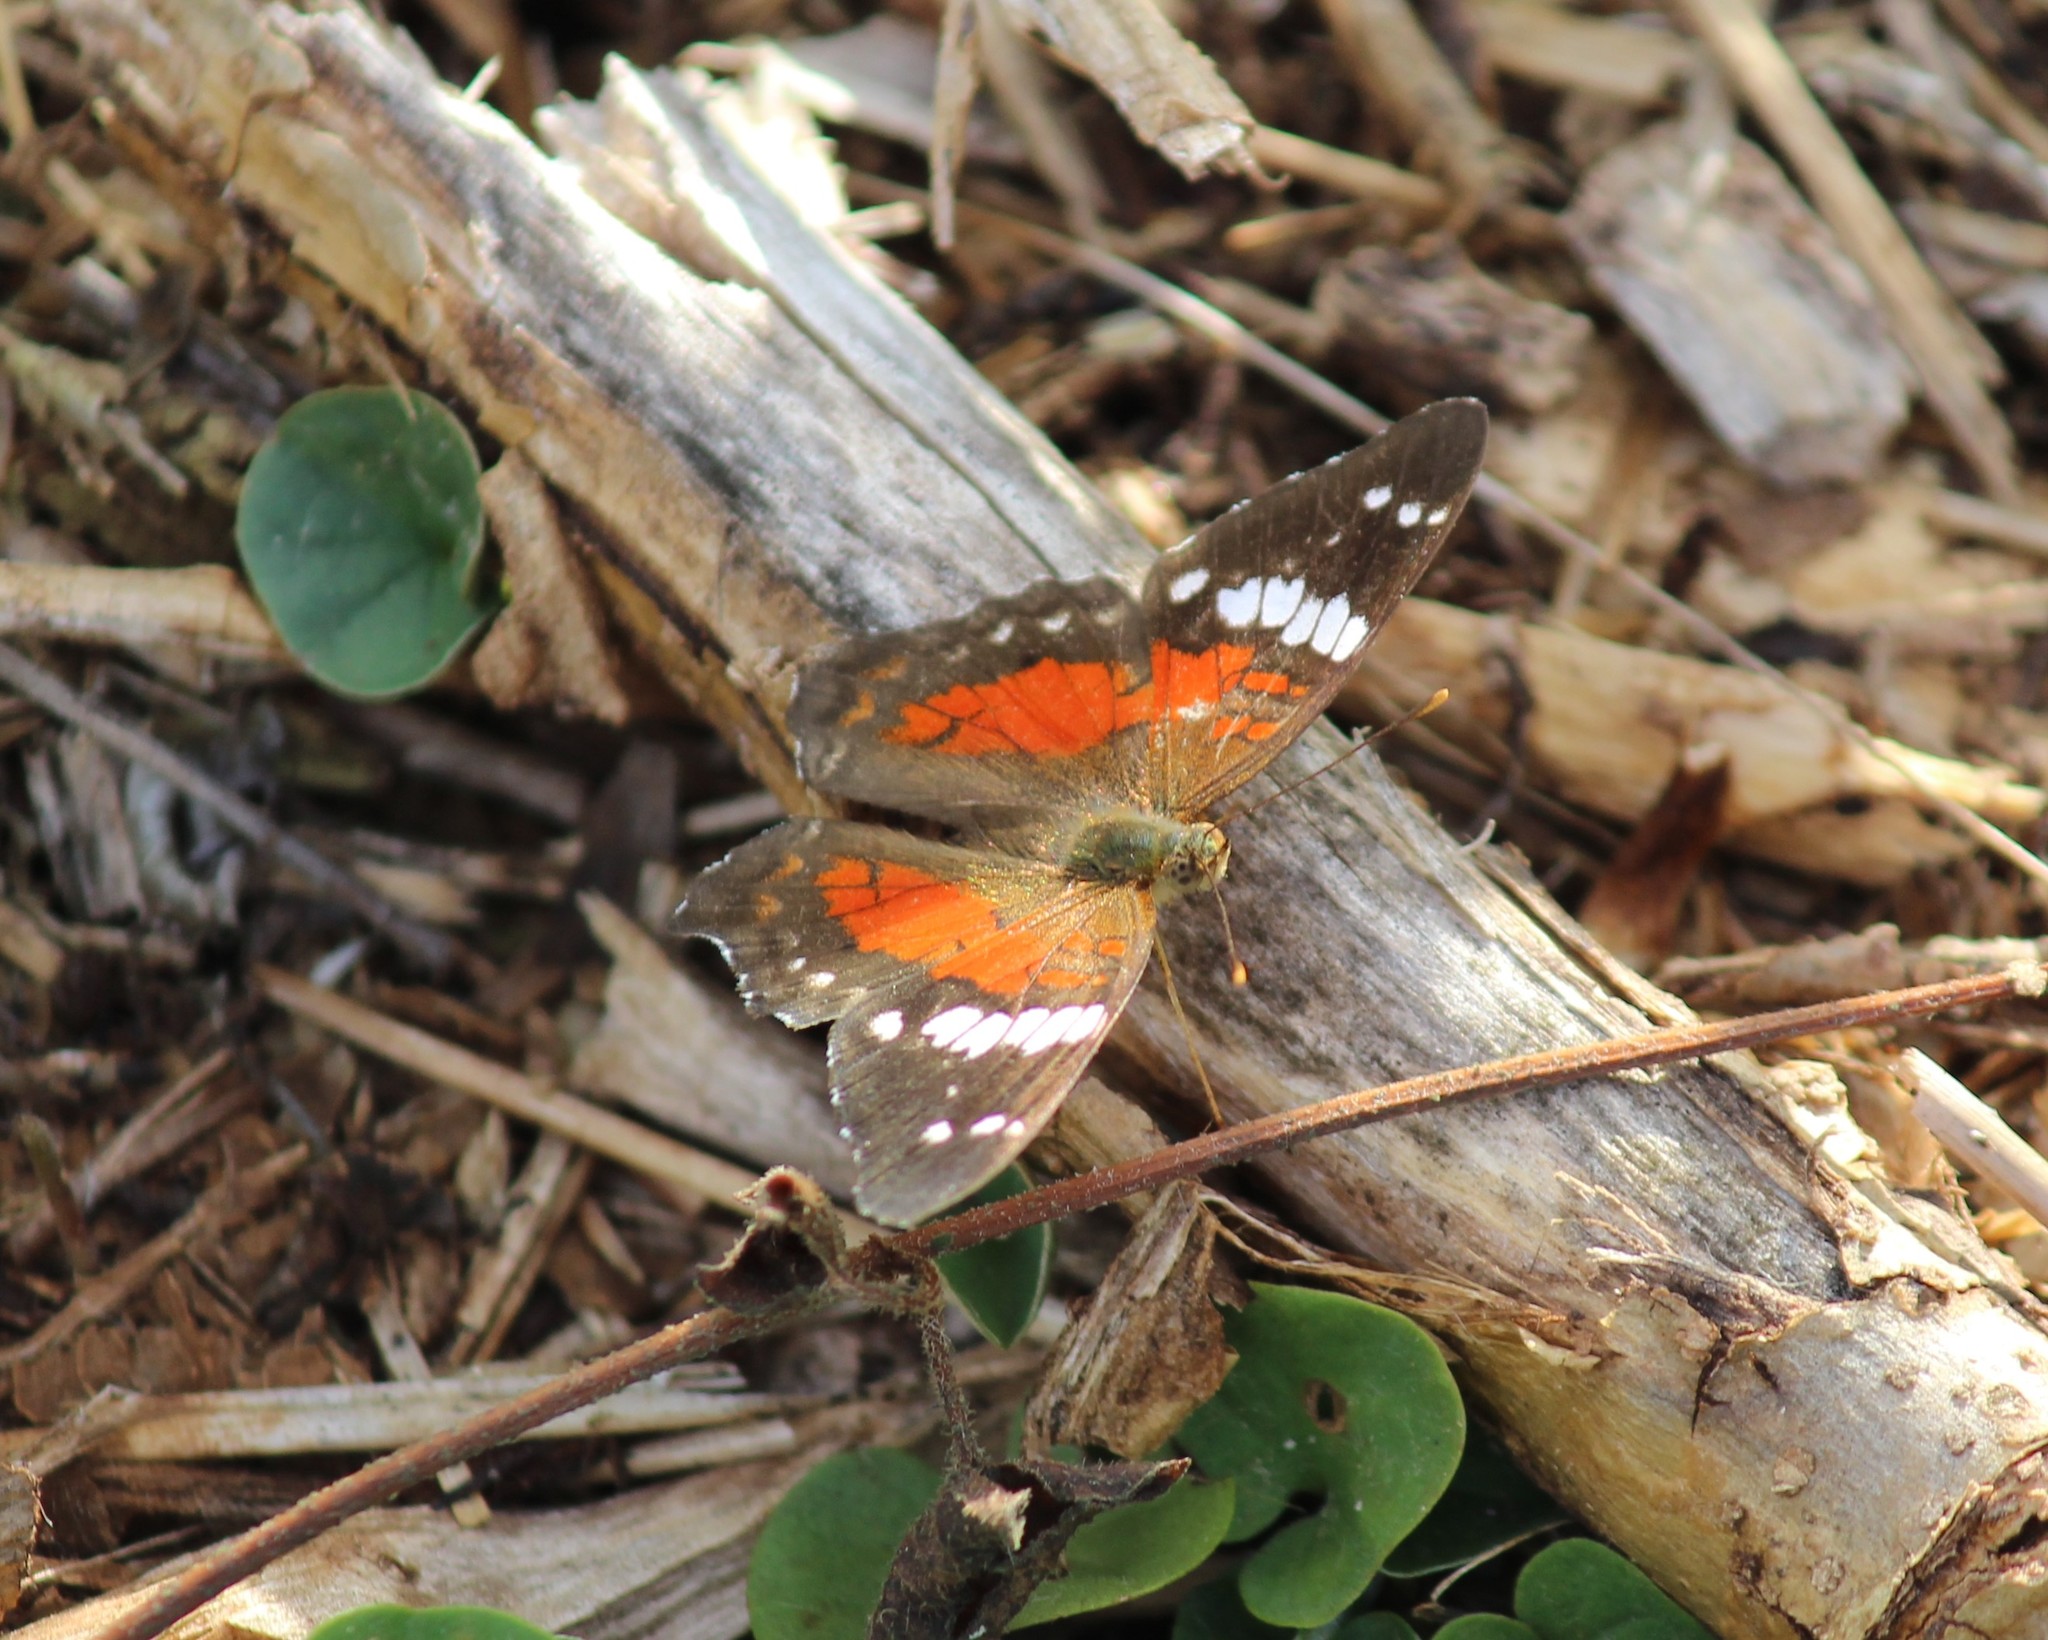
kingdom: Animalia
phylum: Arthropoda
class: Insecta
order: Lepidoptera
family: Nymphalidae
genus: Anartia
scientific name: Anartia amathea
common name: Red peacock
